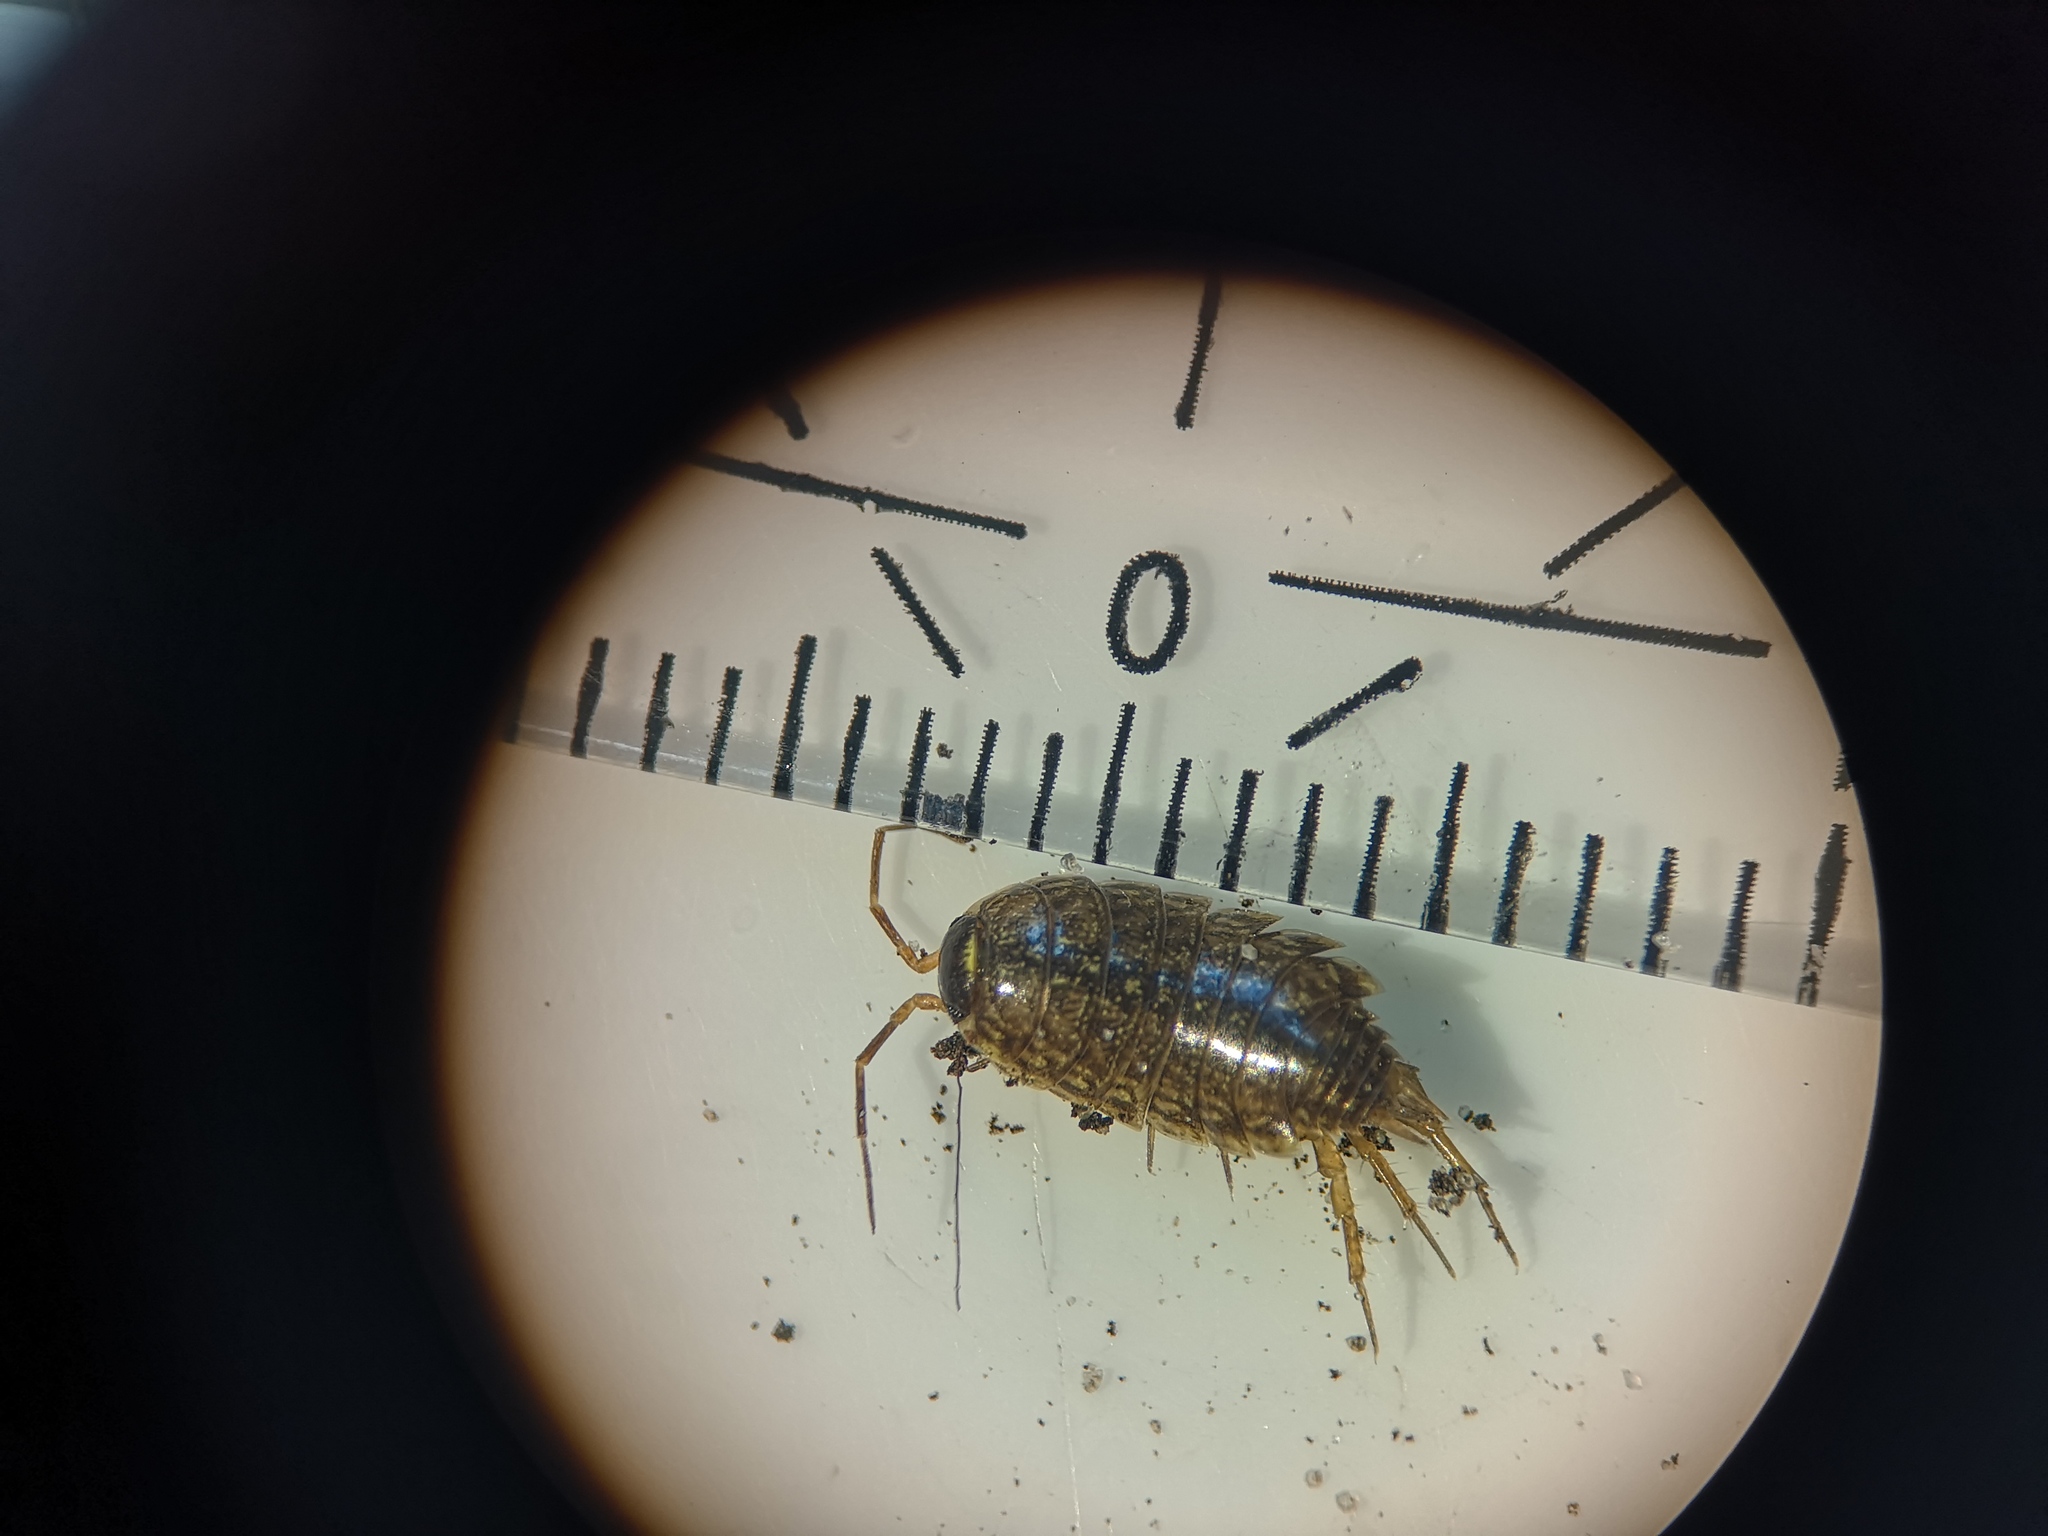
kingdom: Animalia
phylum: Arthropoda
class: Malacostraca
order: Isopoda
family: Philosciidae
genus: Philoscia
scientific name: Philoscia muscorum
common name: Common striped woodlouse
